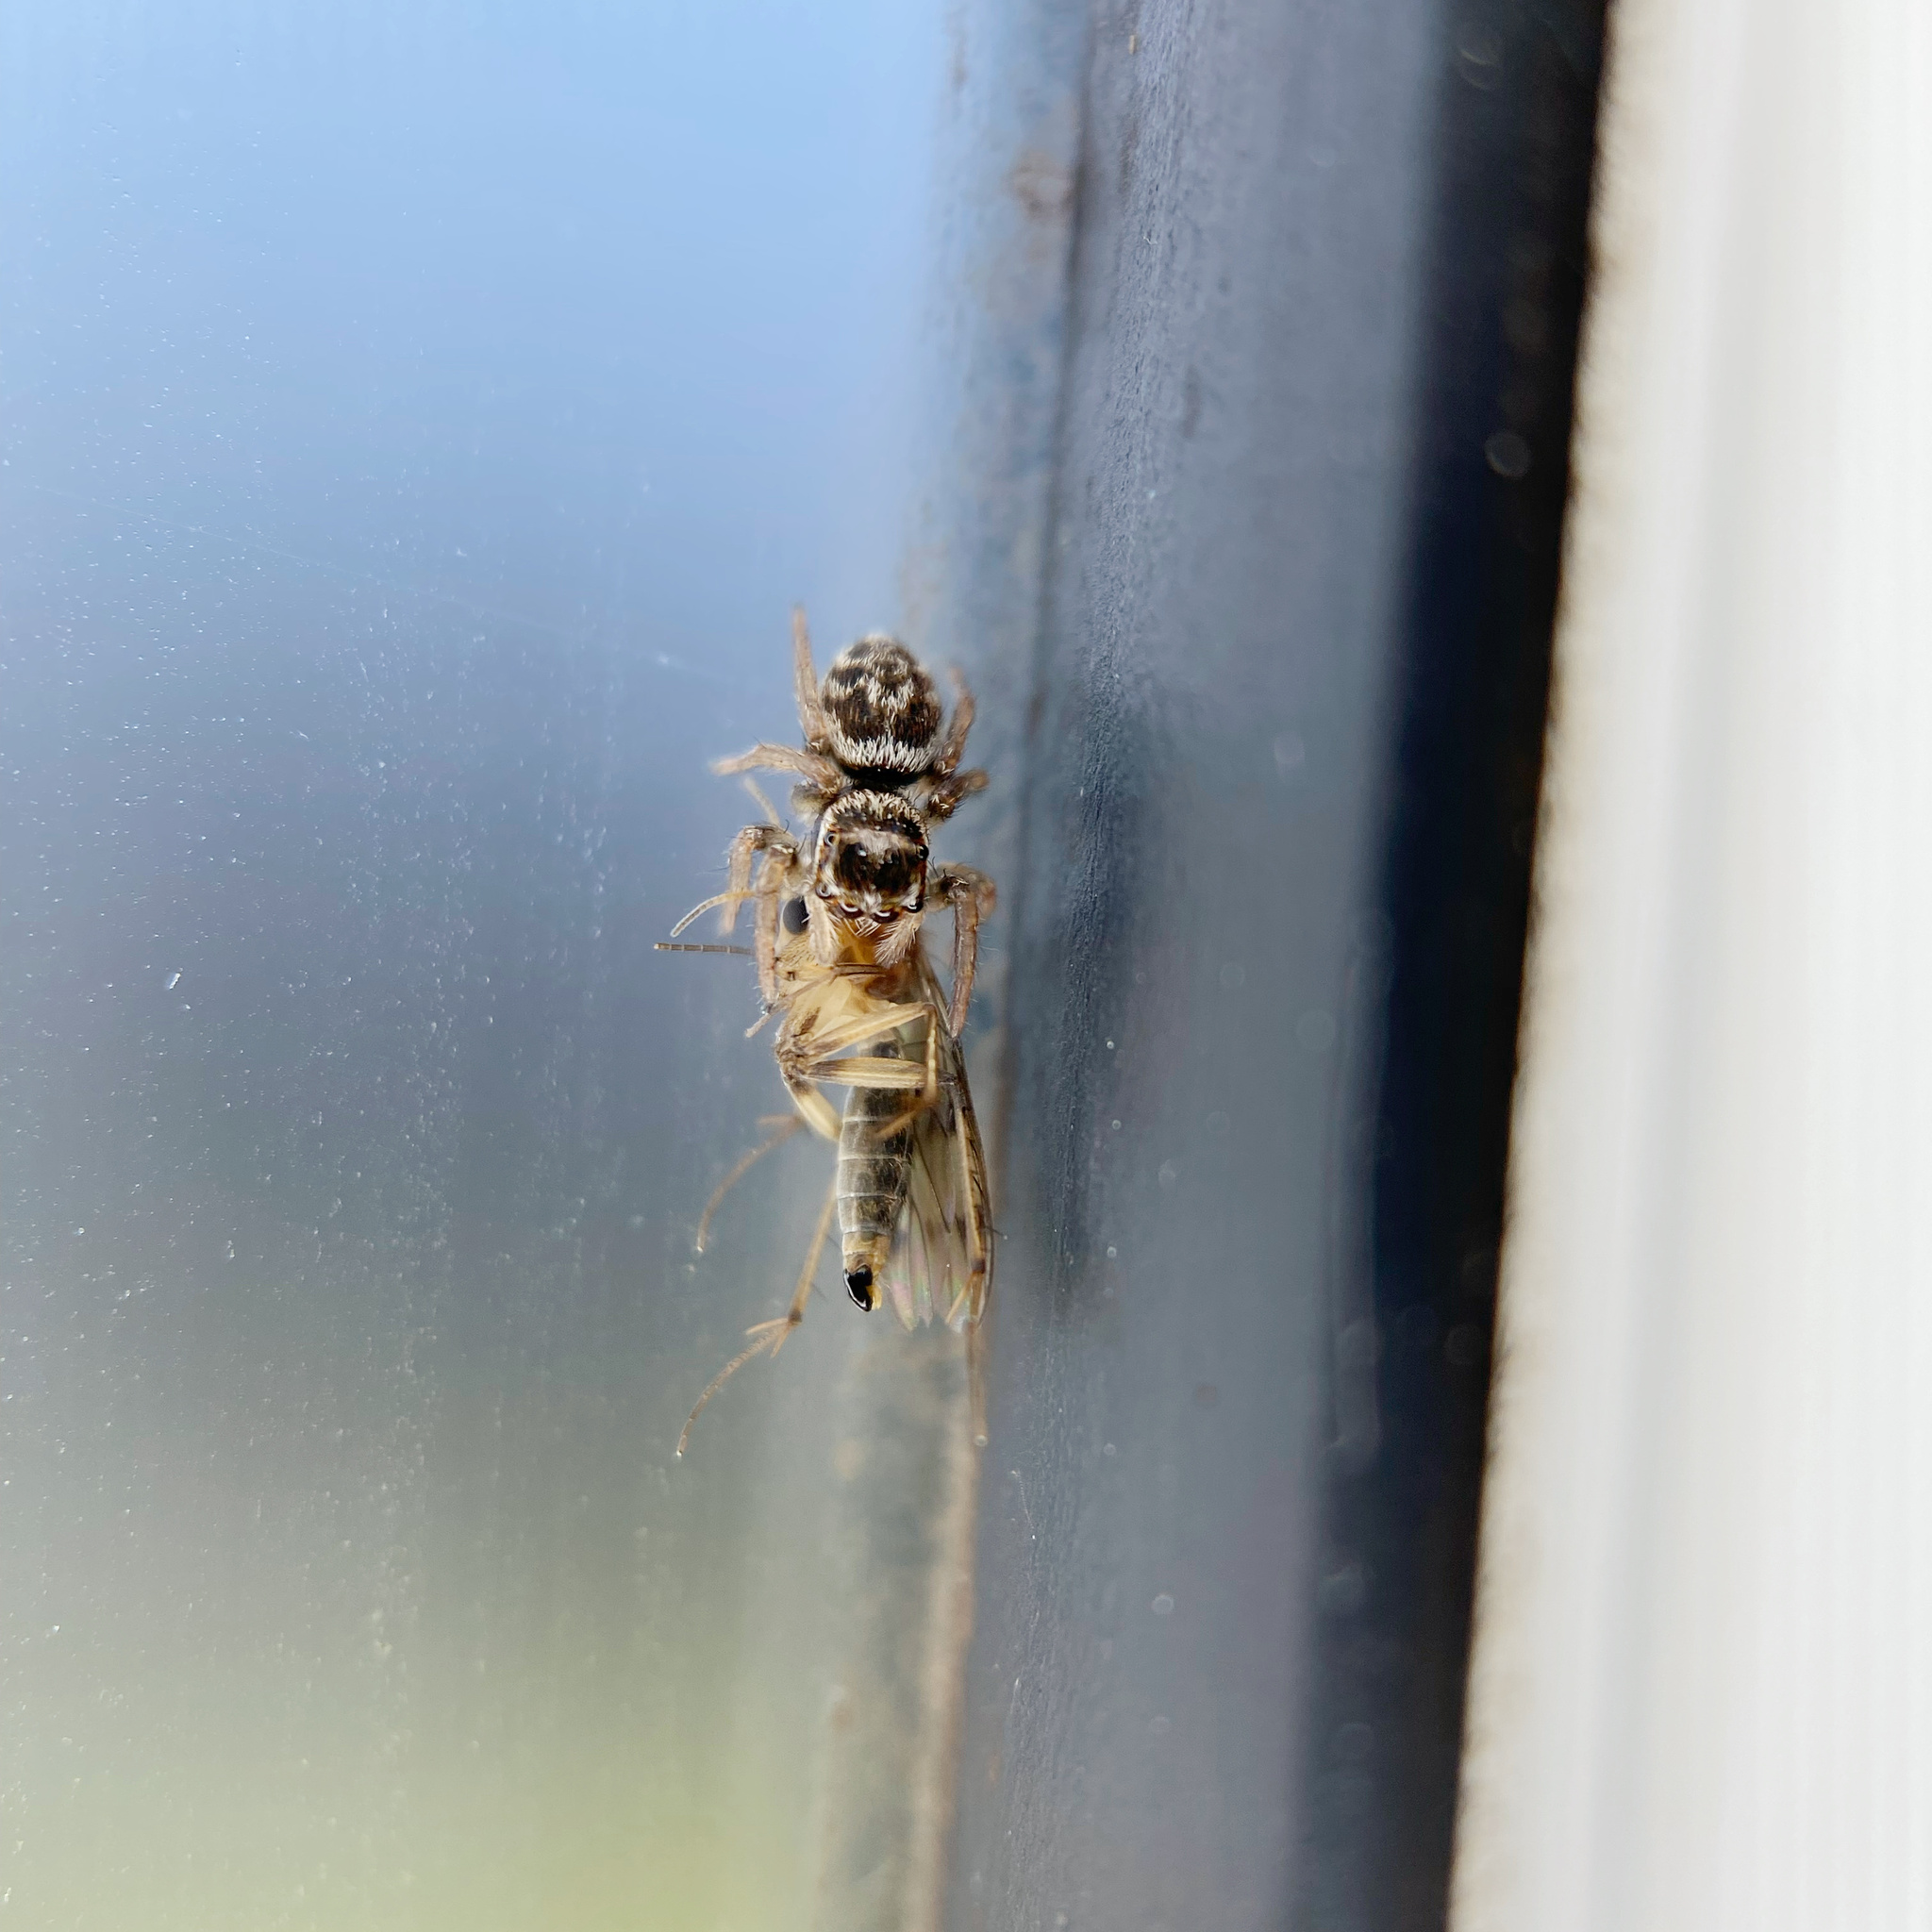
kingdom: Animalia
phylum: Arthropoda
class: Arachnida
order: Araneae
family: Salticidae
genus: Maratus
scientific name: Maratus griseus
